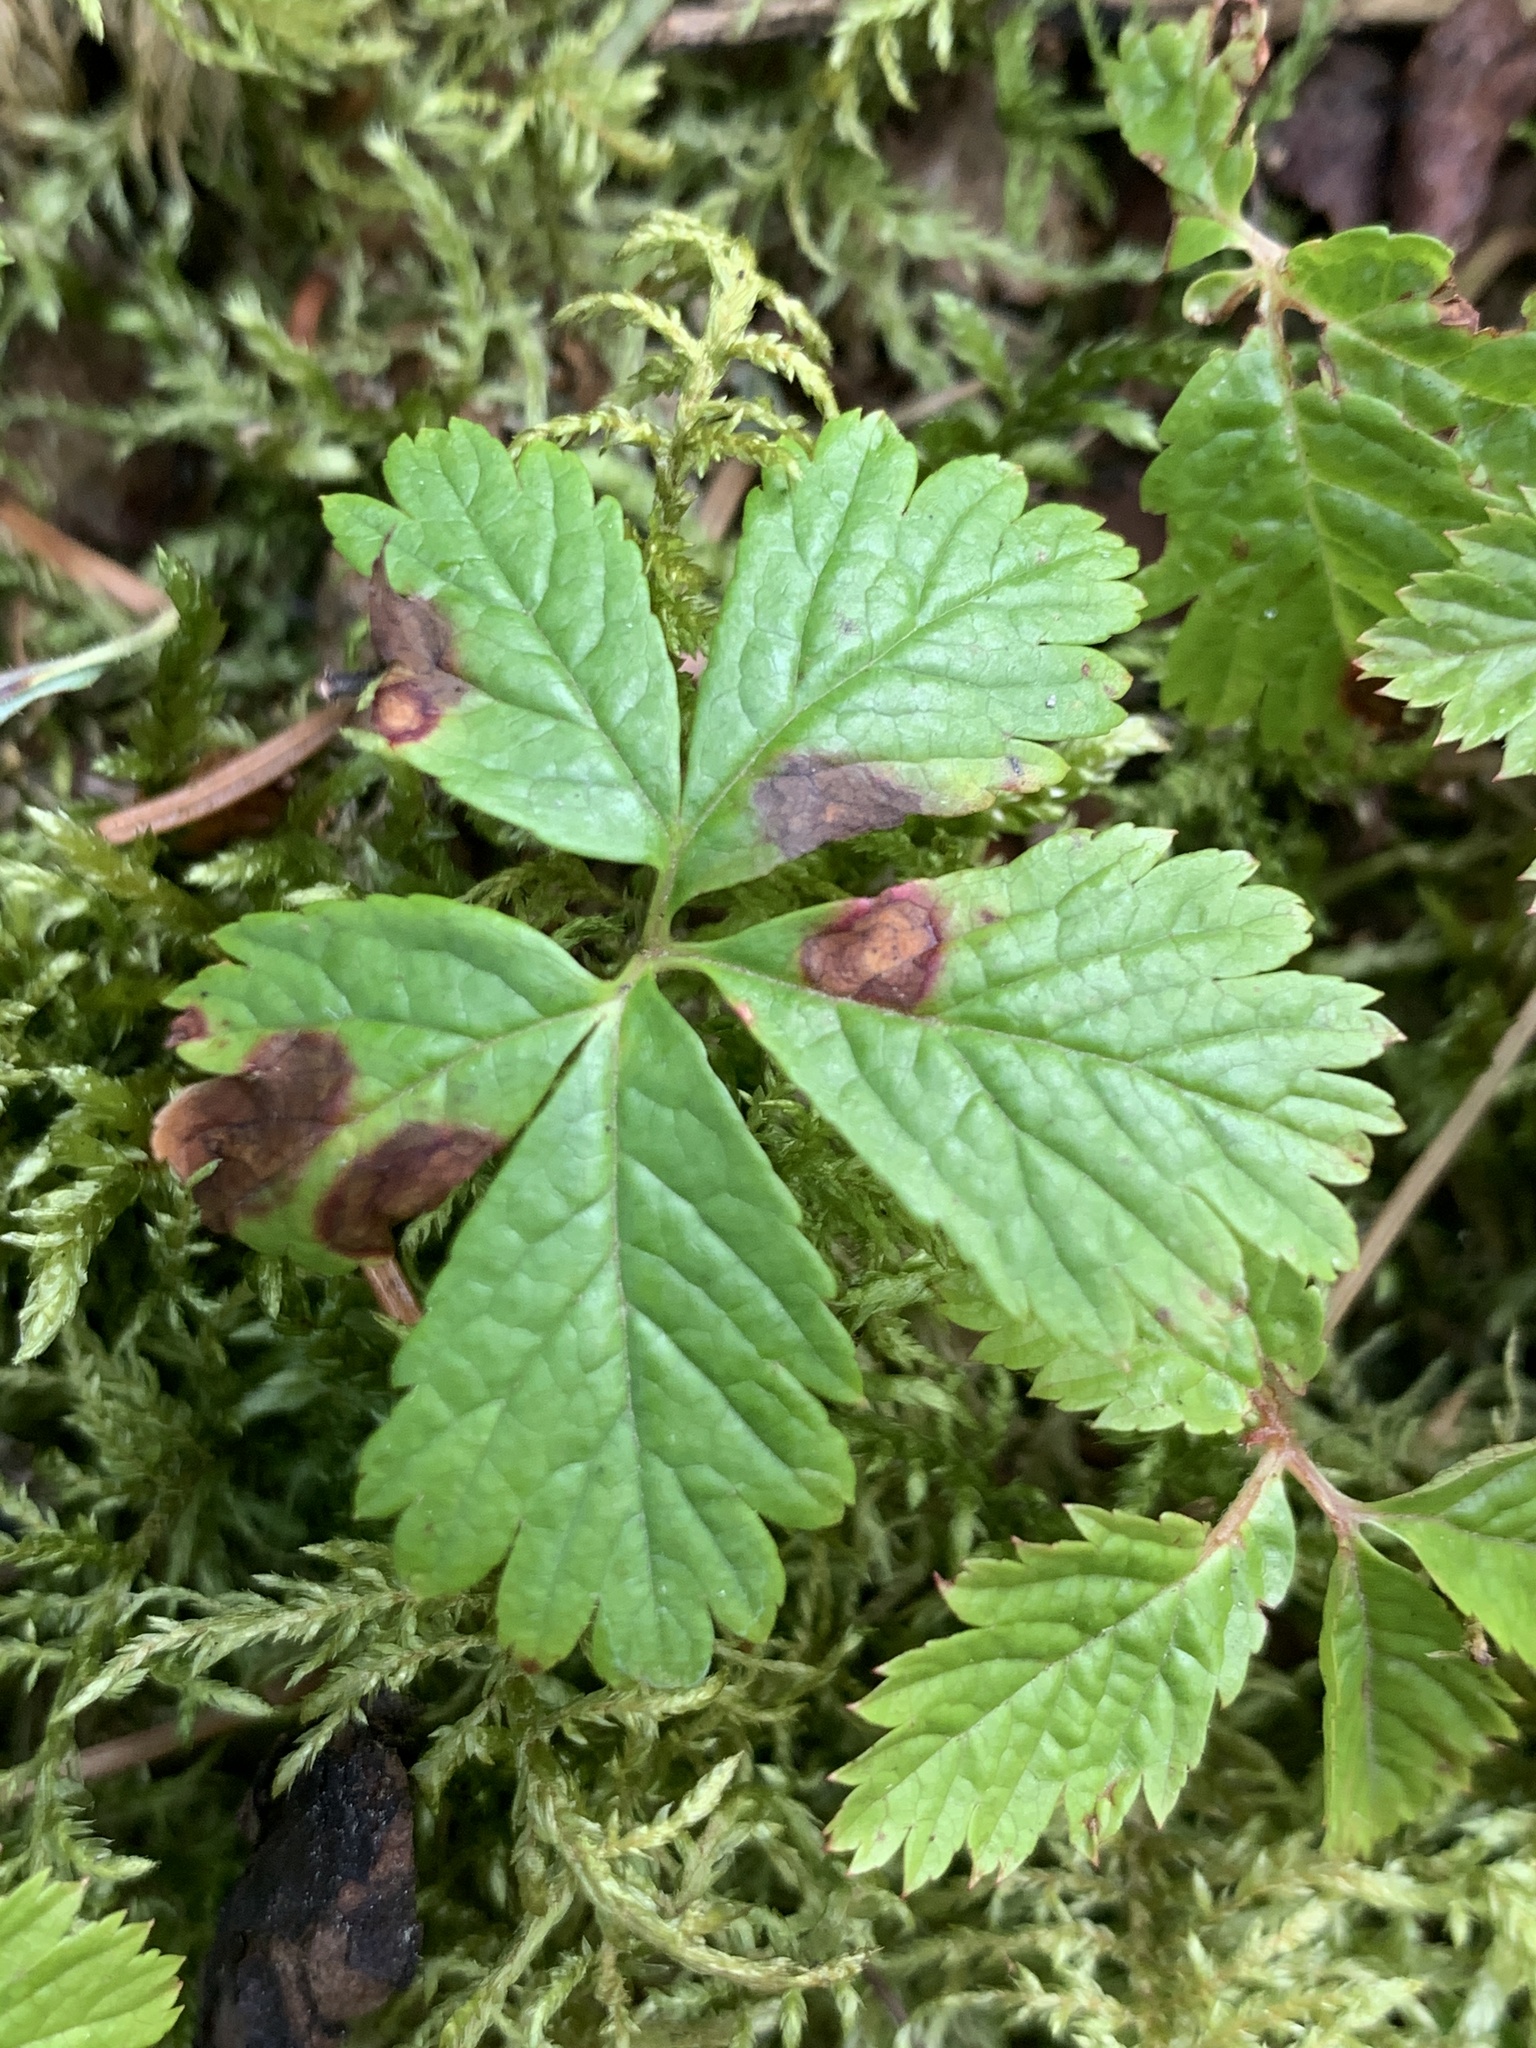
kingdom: Plantae
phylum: Tracheophyta
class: Magnoliopsida
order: Rosales
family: Rosaceae
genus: Rubus
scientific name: Rubus pedatus
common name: Creeping raspberry
